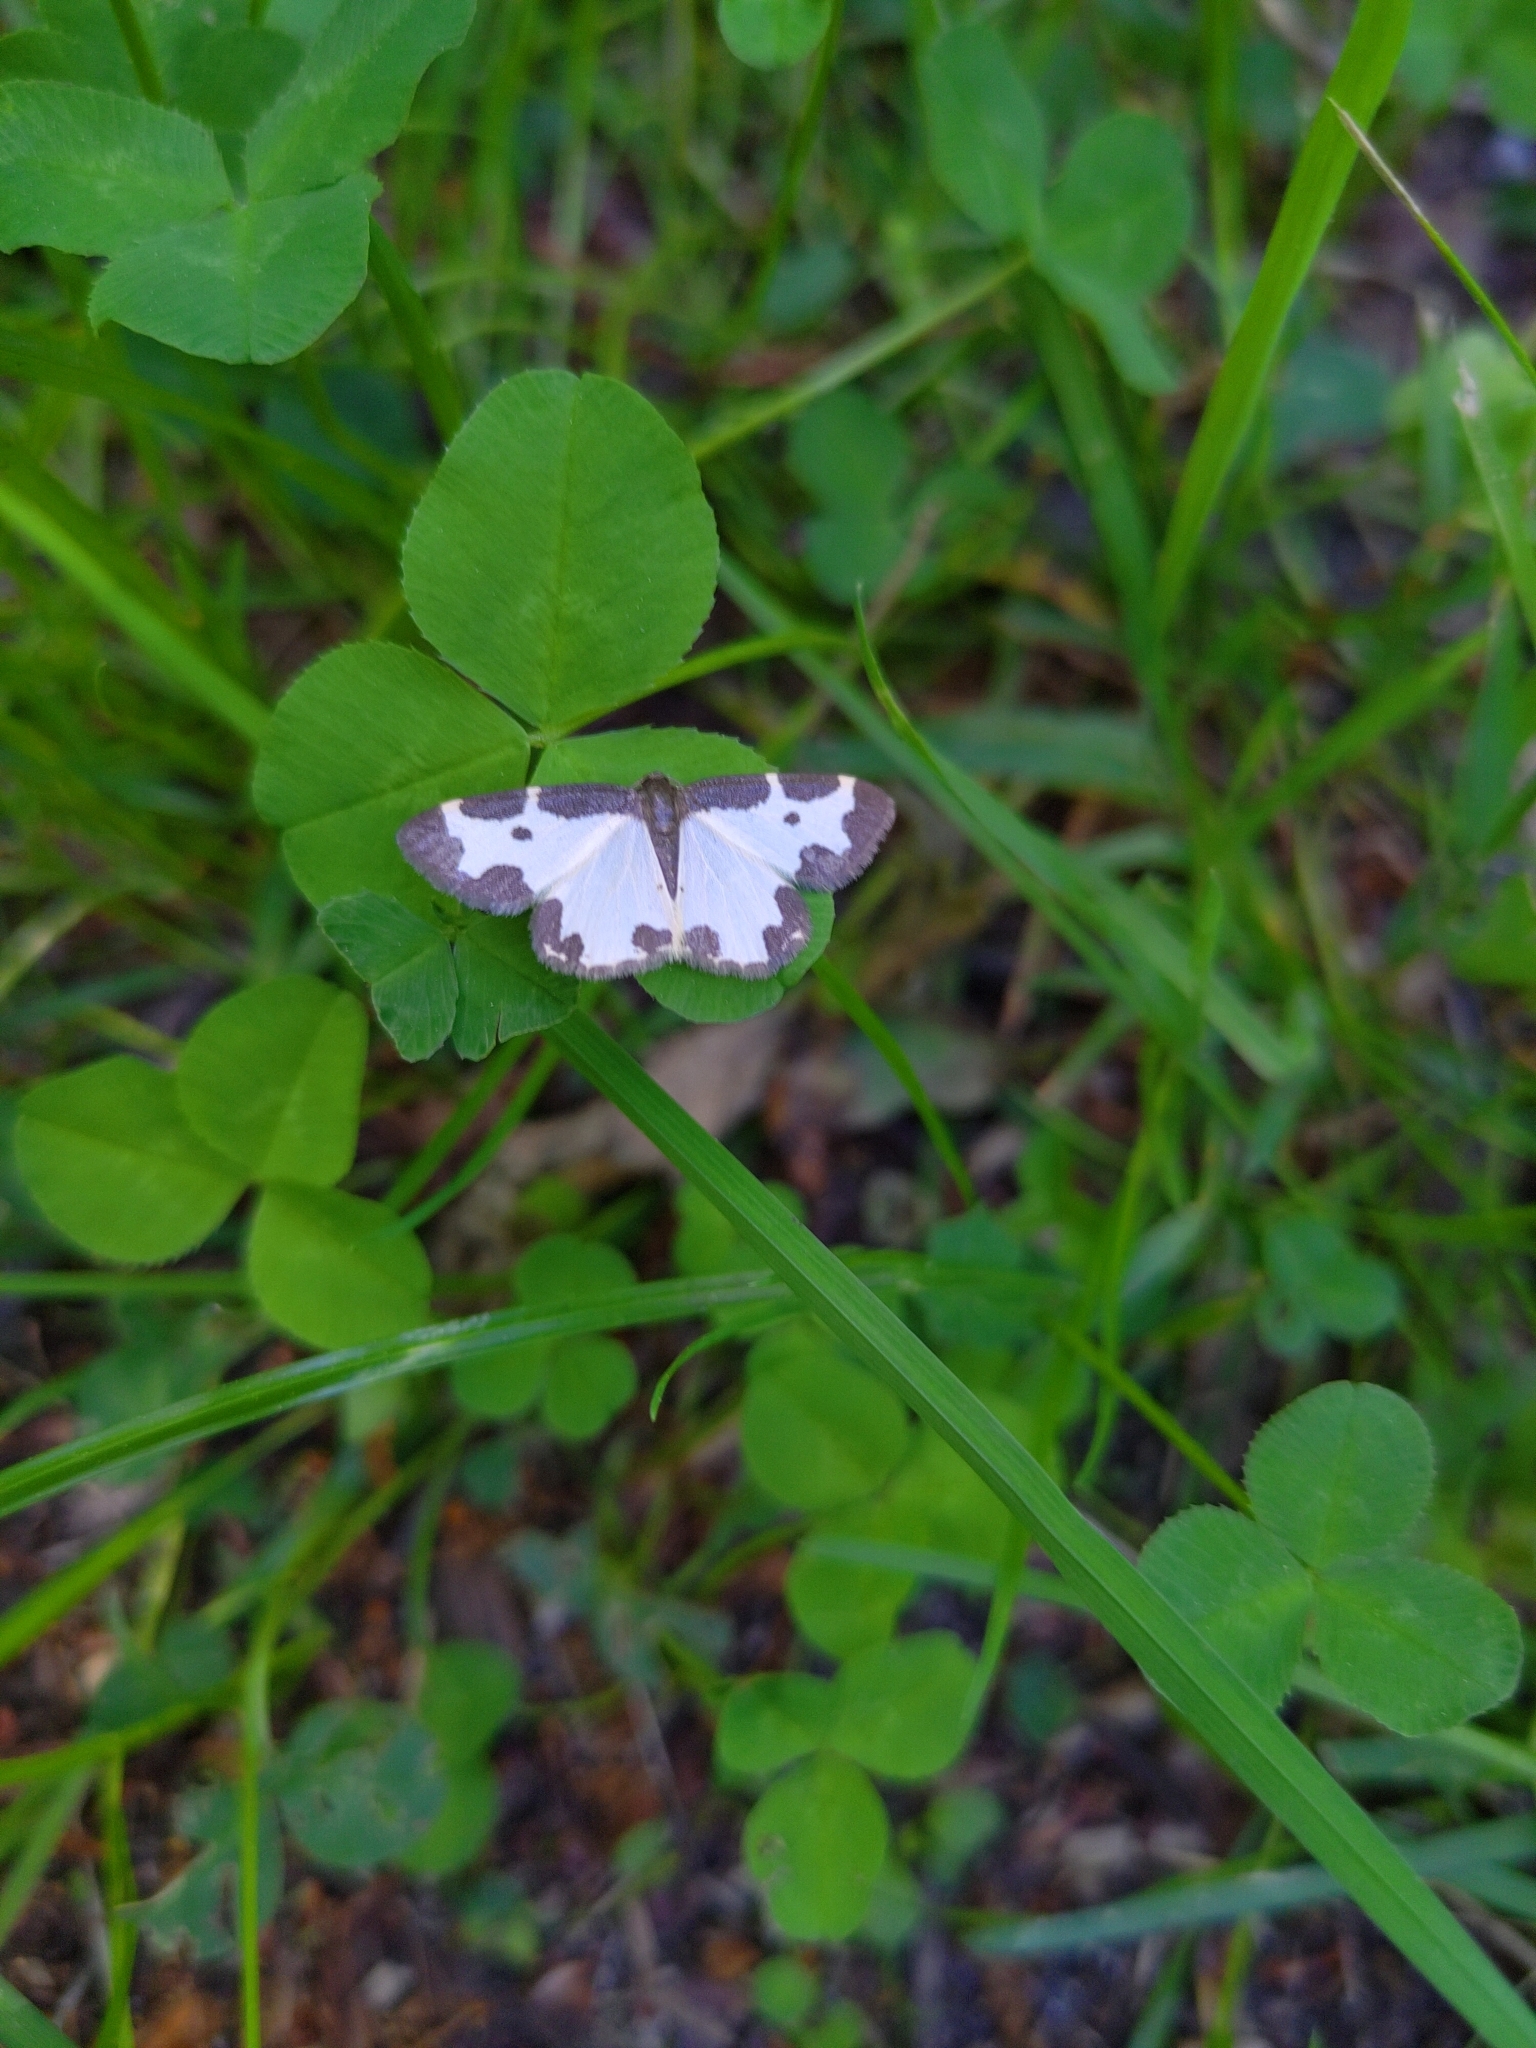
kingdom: Animalia
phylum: Arthropoda
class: Insecta
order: Lepidoptera
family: Geometridae
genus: Lomaspilis
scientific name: Lomaspilis marginata
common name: Clouded border
